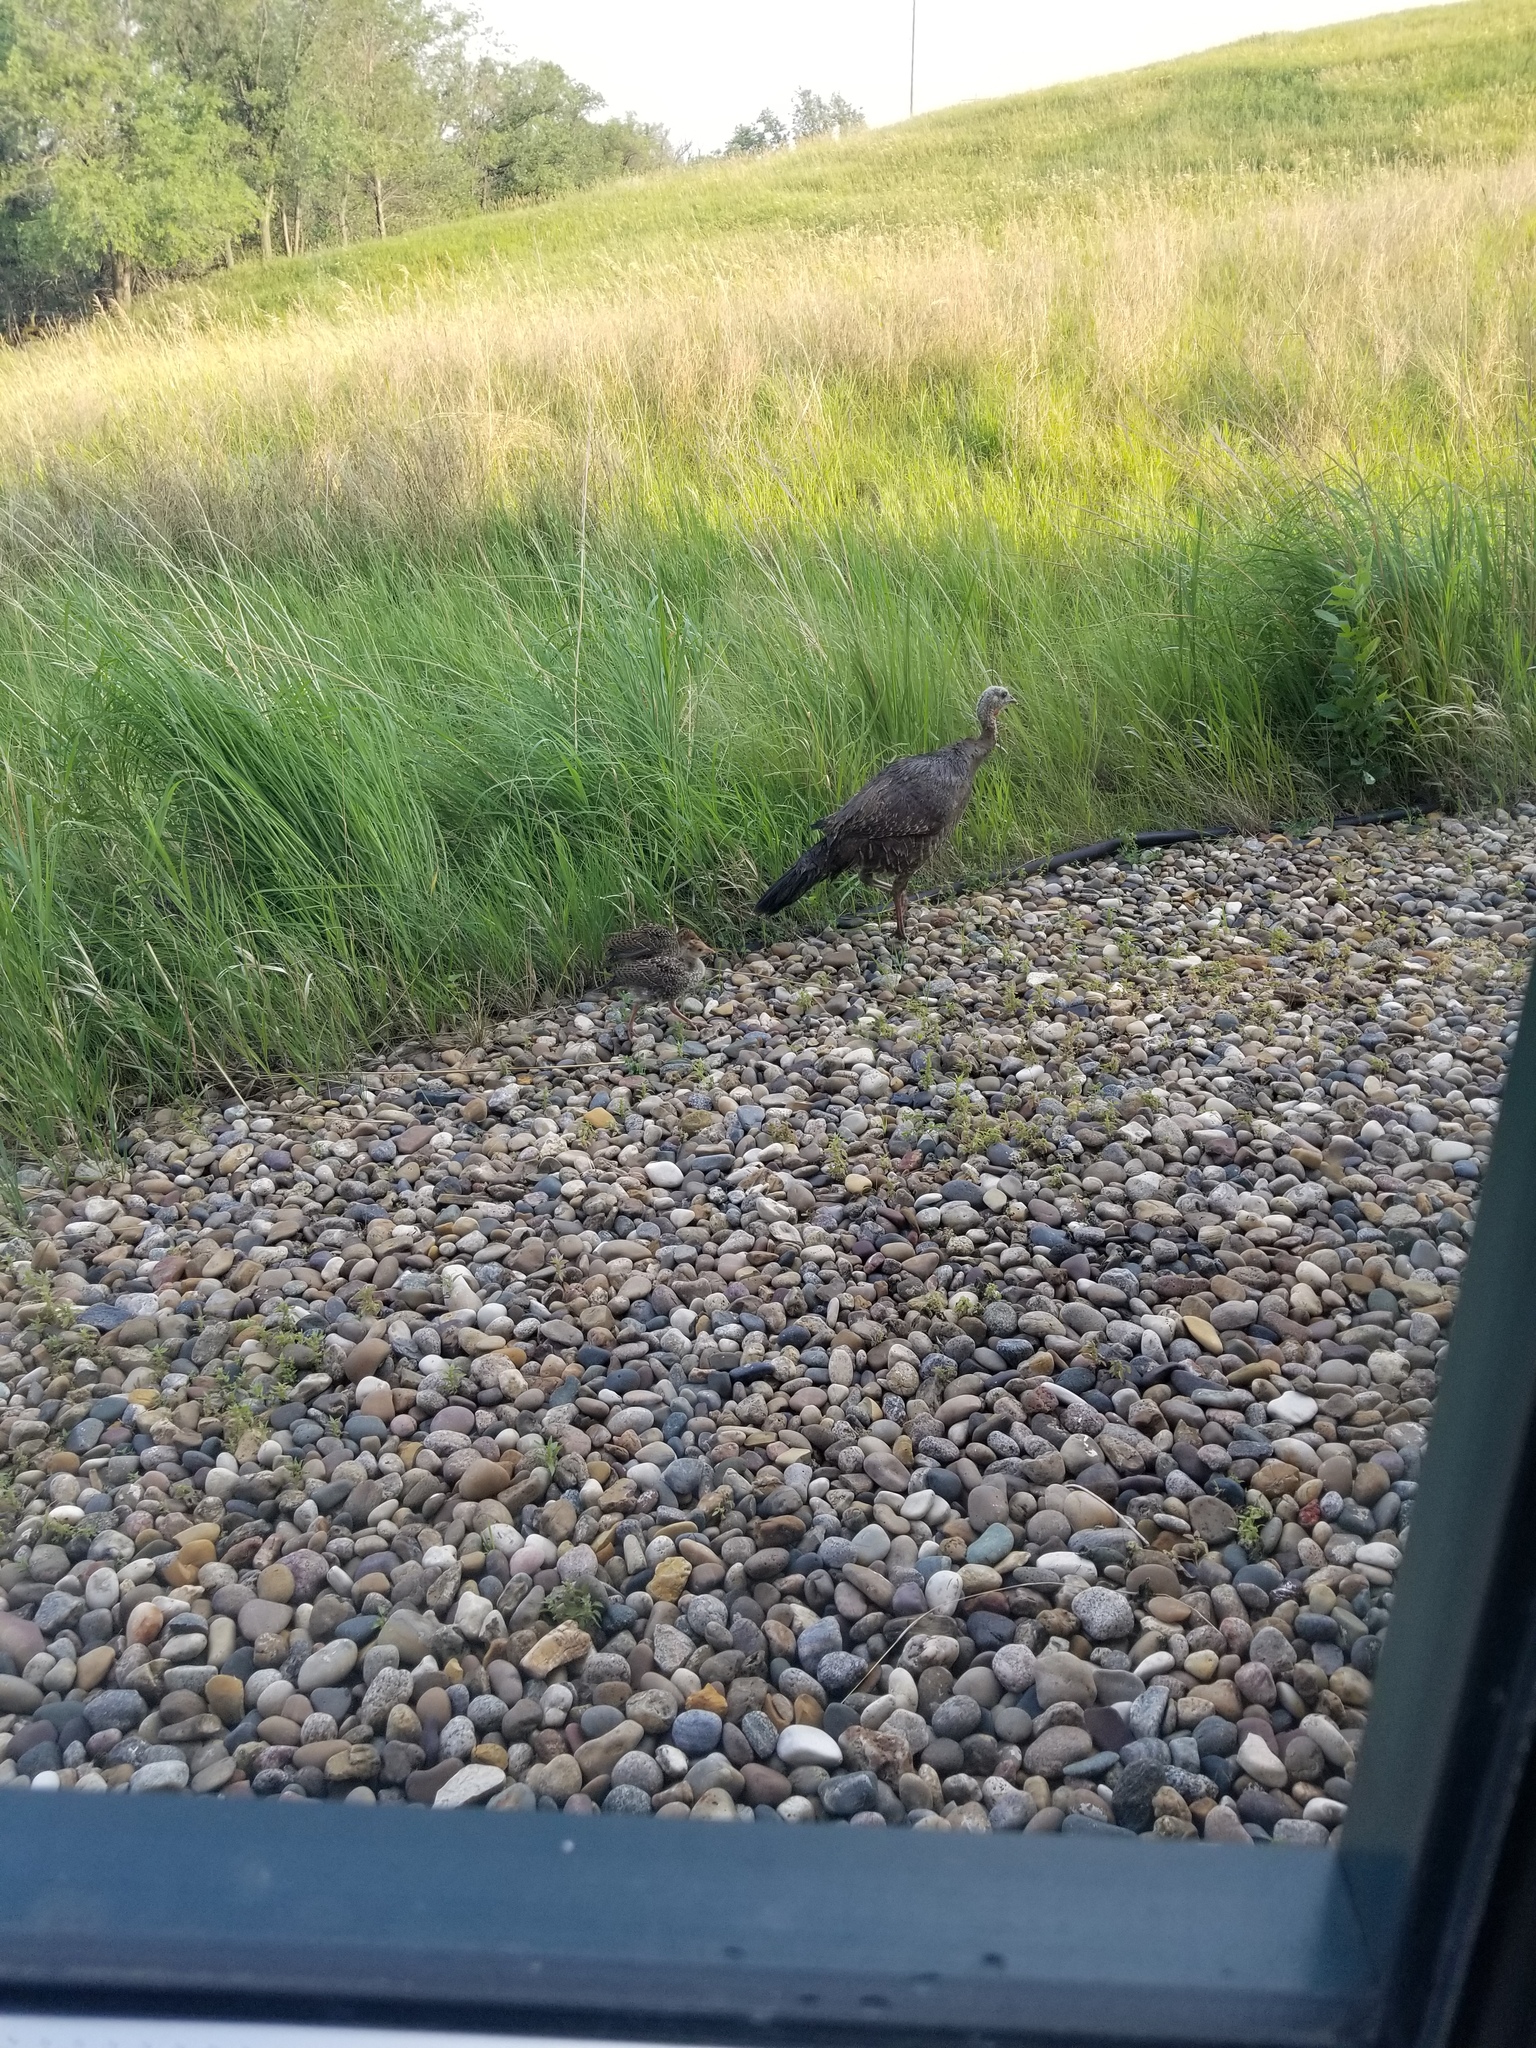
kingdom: Animalia
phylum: Chordata
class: Aves
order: Galliformes
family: Phasianidae
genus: Meleagris
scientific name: Meleagris gallopavo
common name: Wild turkey
